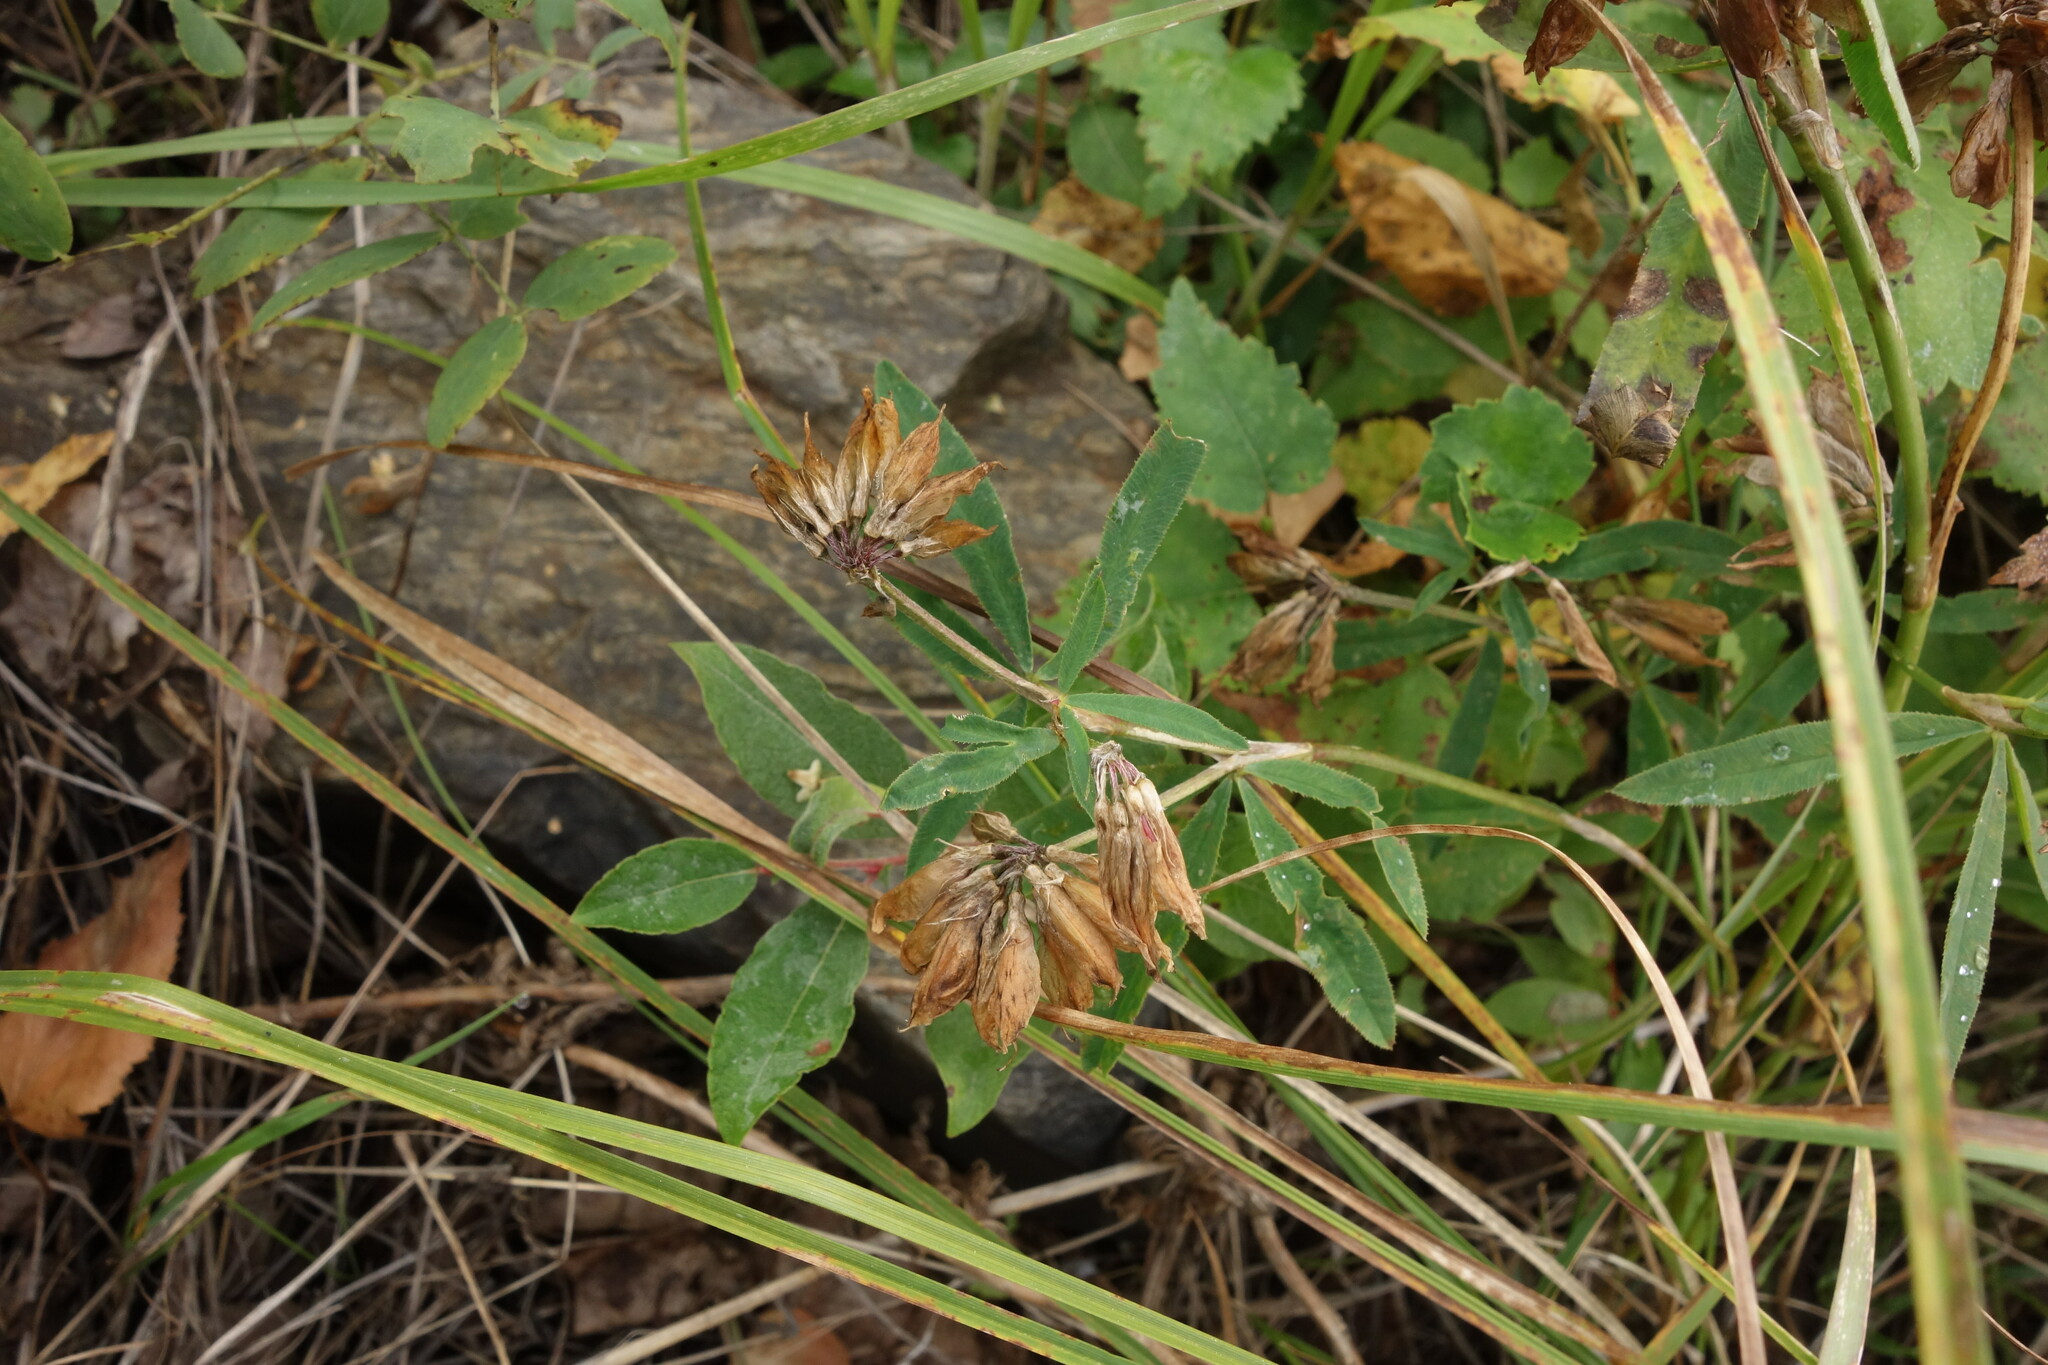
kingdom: Plantae
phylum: Tracheophyta
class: Magnoliopsida
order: Fabales
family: Fabaceae
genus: Trifolium
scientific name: Trifolium lupinaster
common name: Lupine clover
